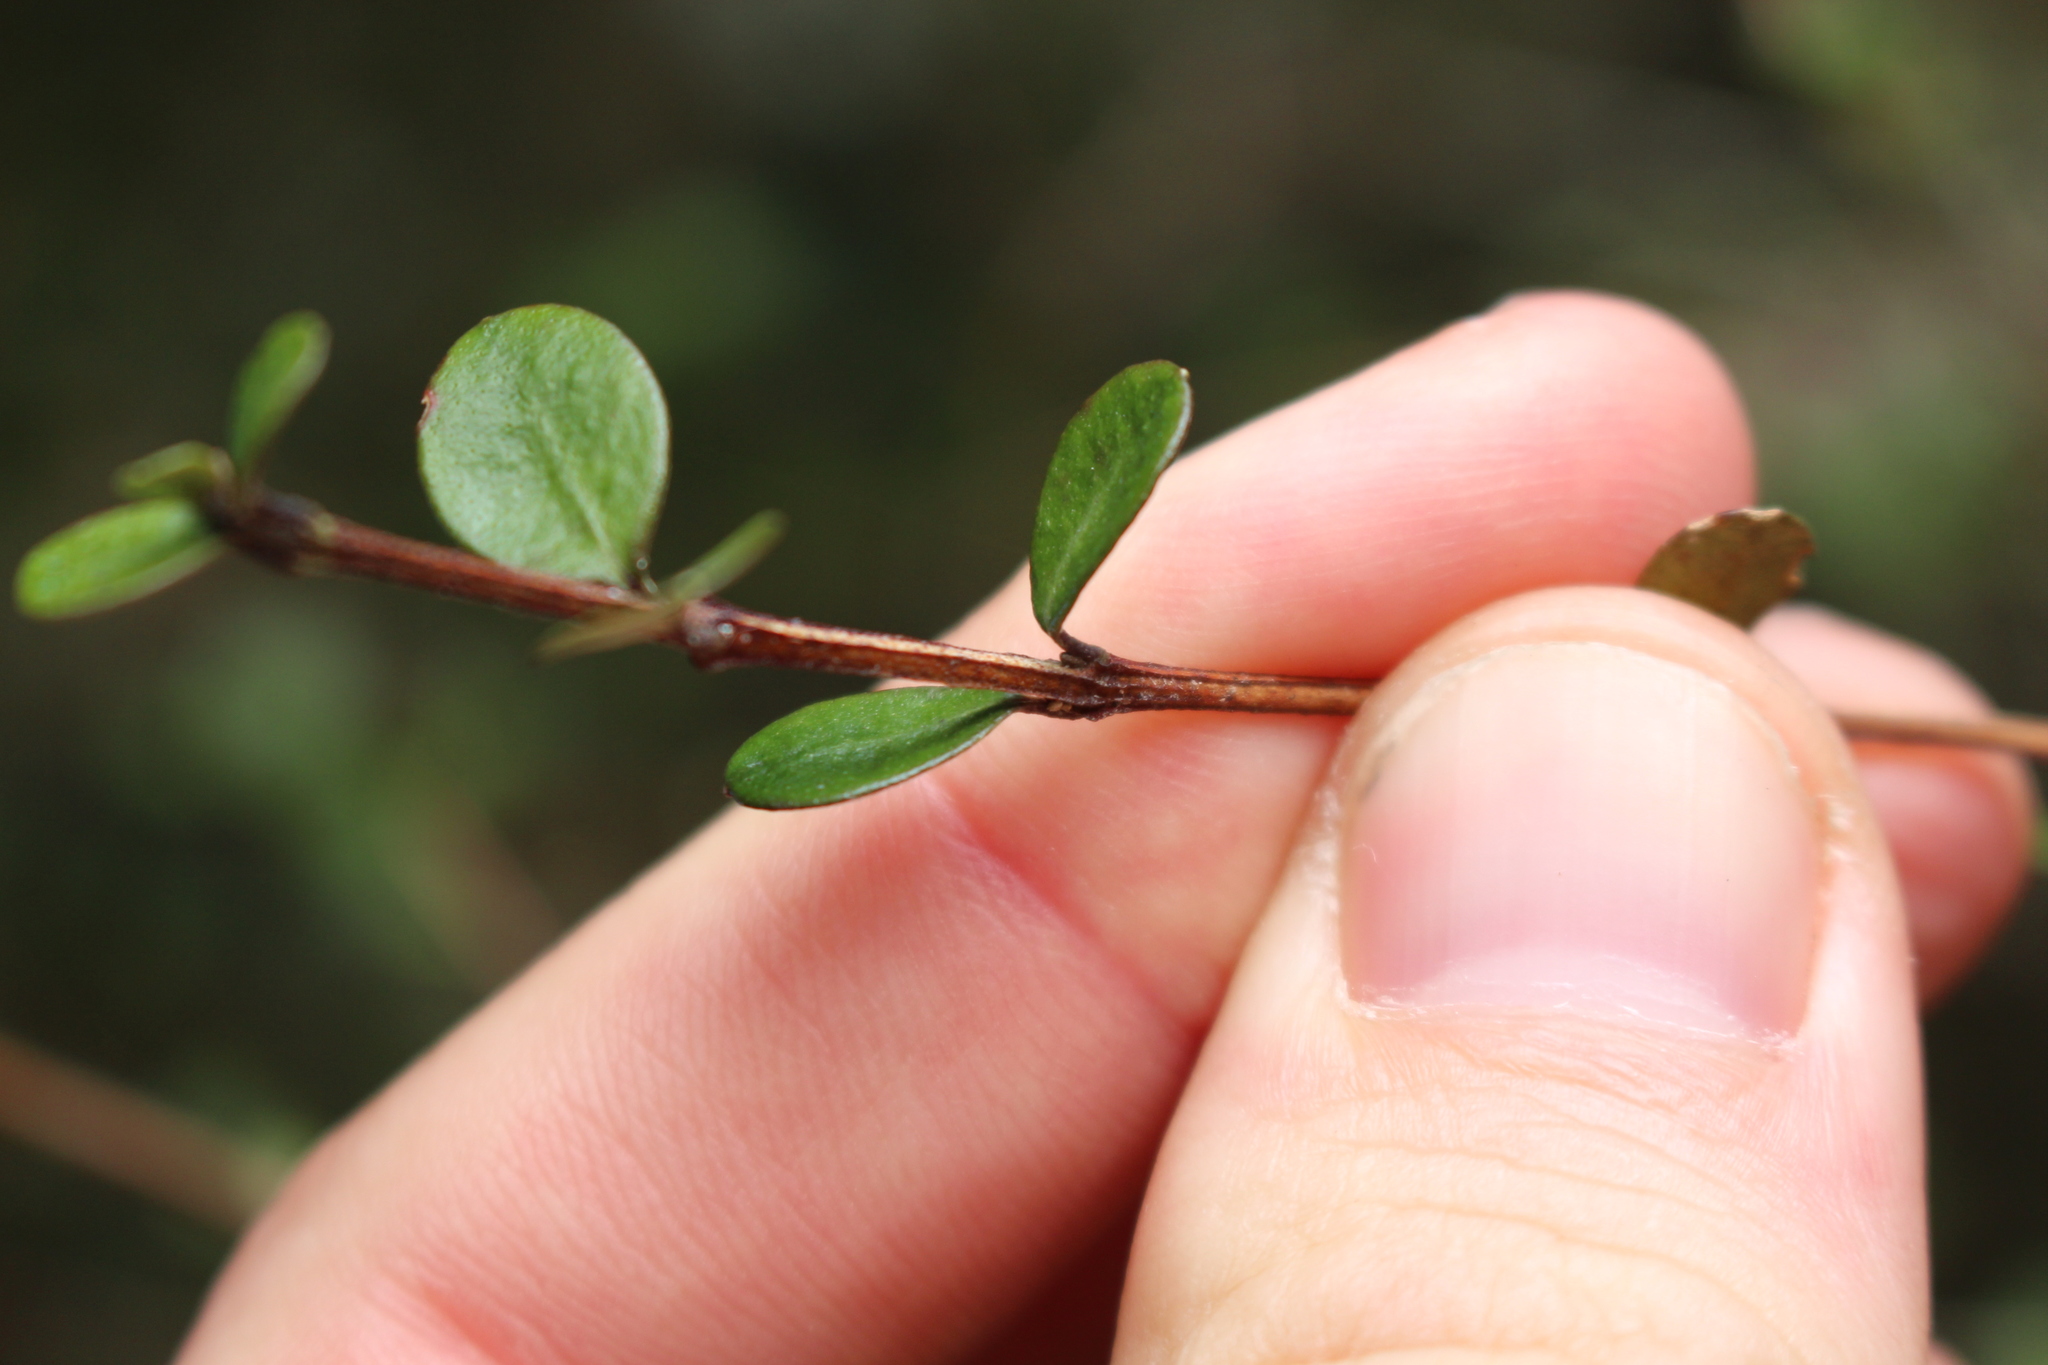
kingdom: Plantae
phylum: Tracheophyta
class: Magnoliopsida
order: Myrtales
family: Myrtaceae
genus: Neomyrtus
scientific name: Neomyrtus pedunculata
